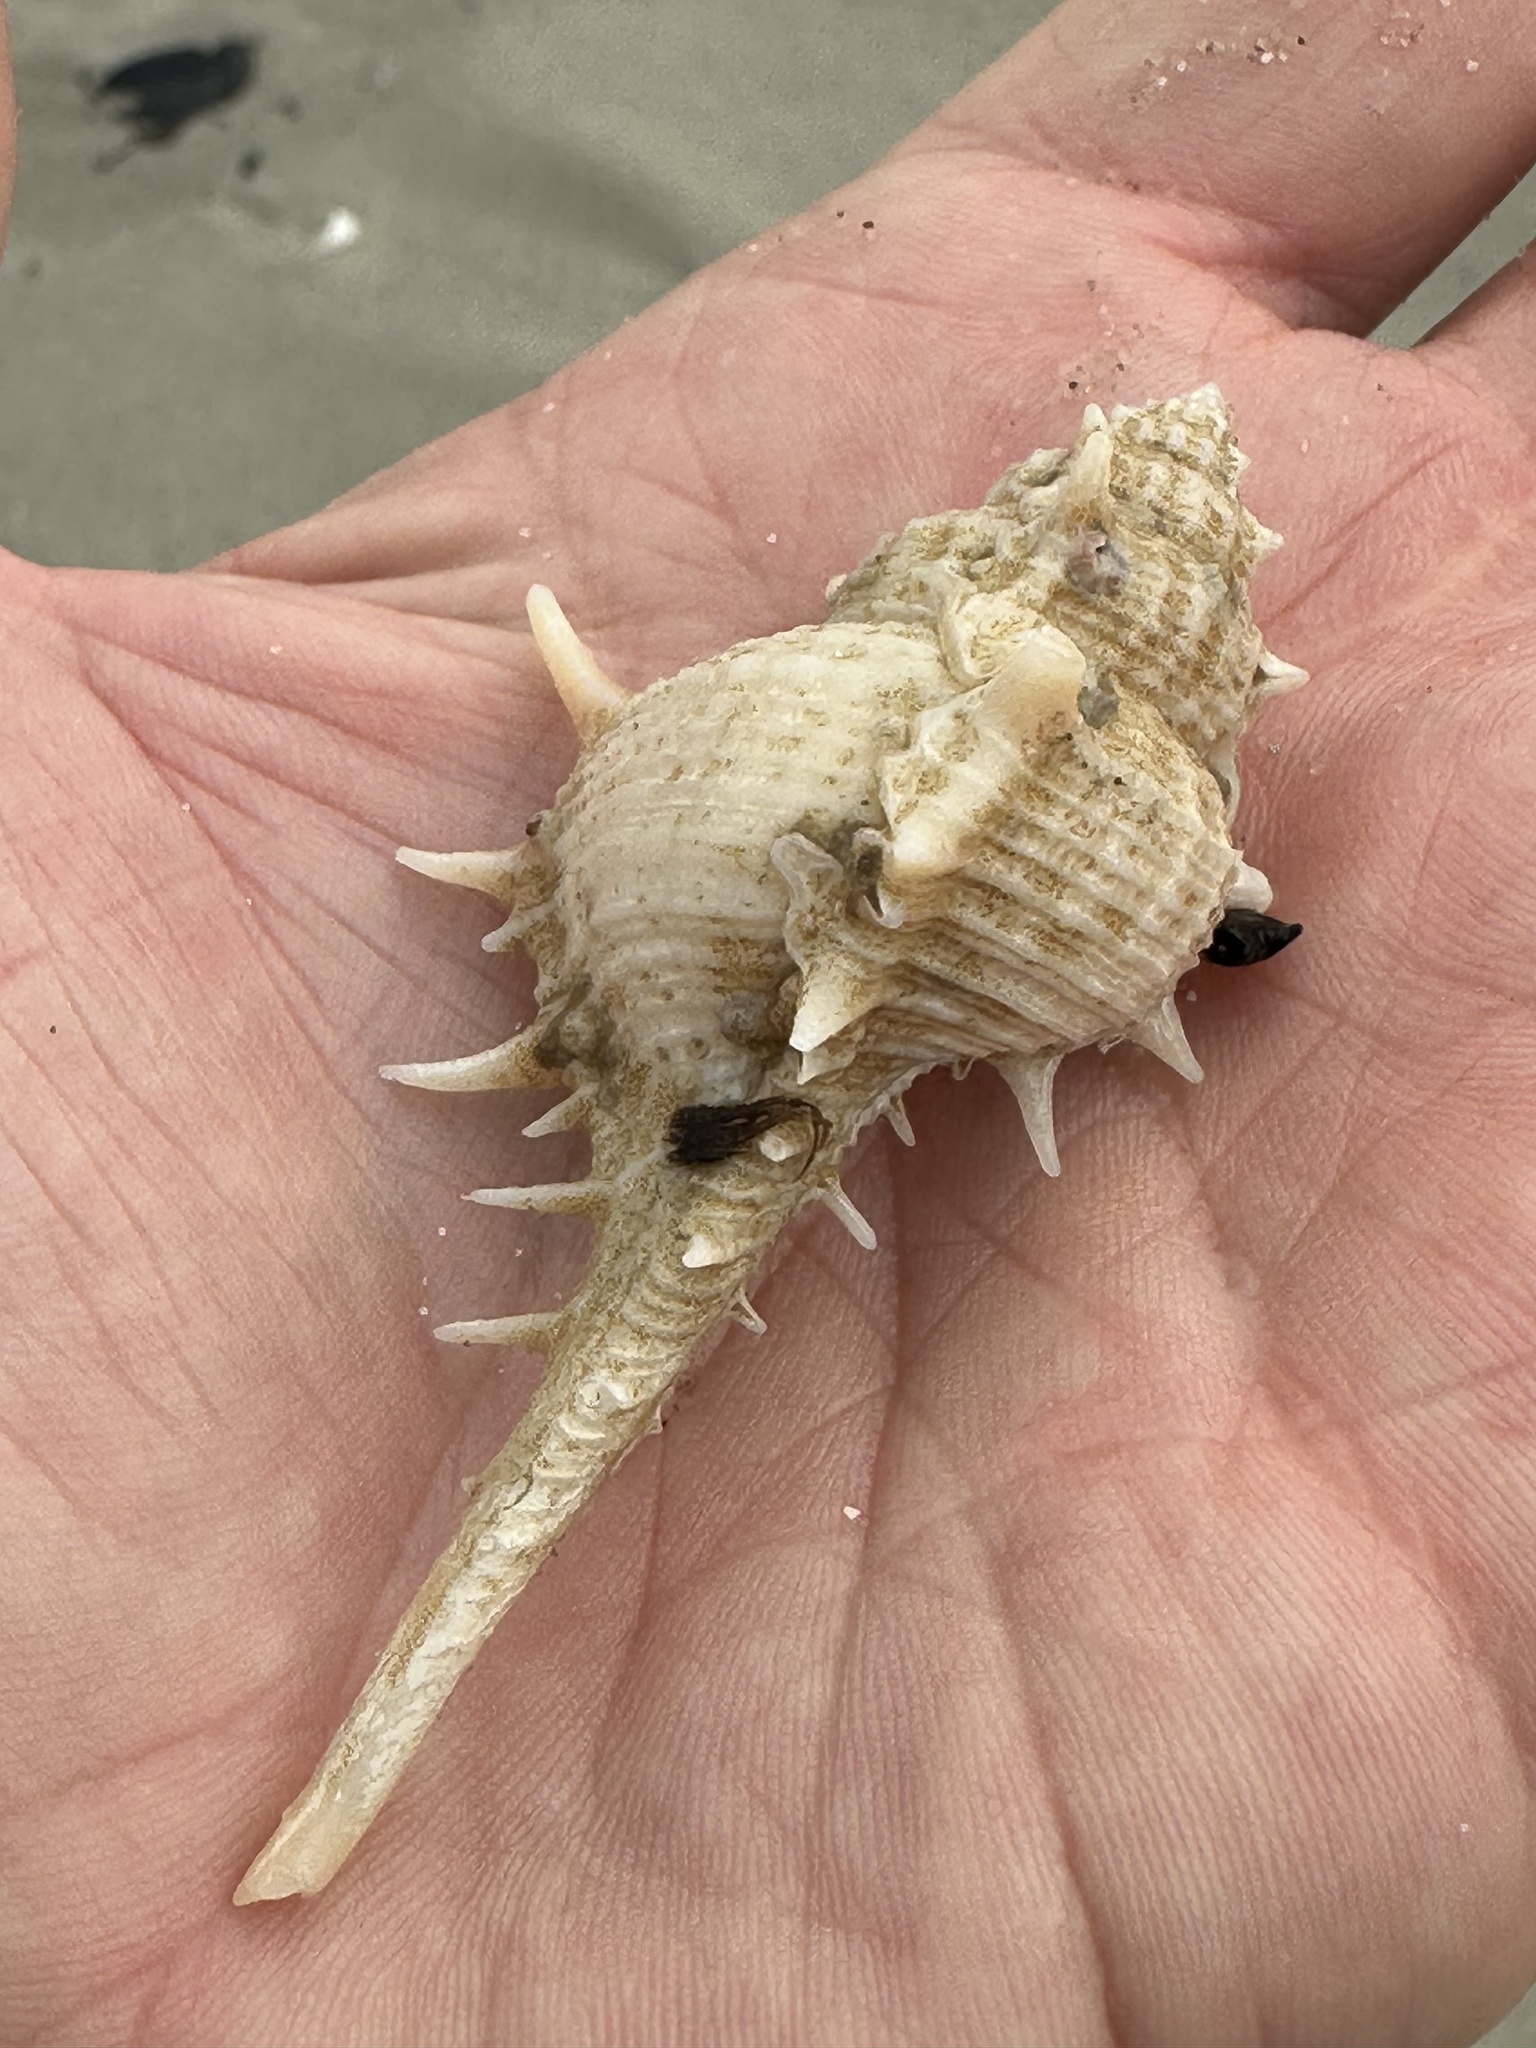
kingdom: Animalia
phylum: Mollusca
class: Gastropoda
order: Neogastropoda
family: Muricidae
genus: Murex
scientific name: Murex trapa
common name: Rare spined murex
